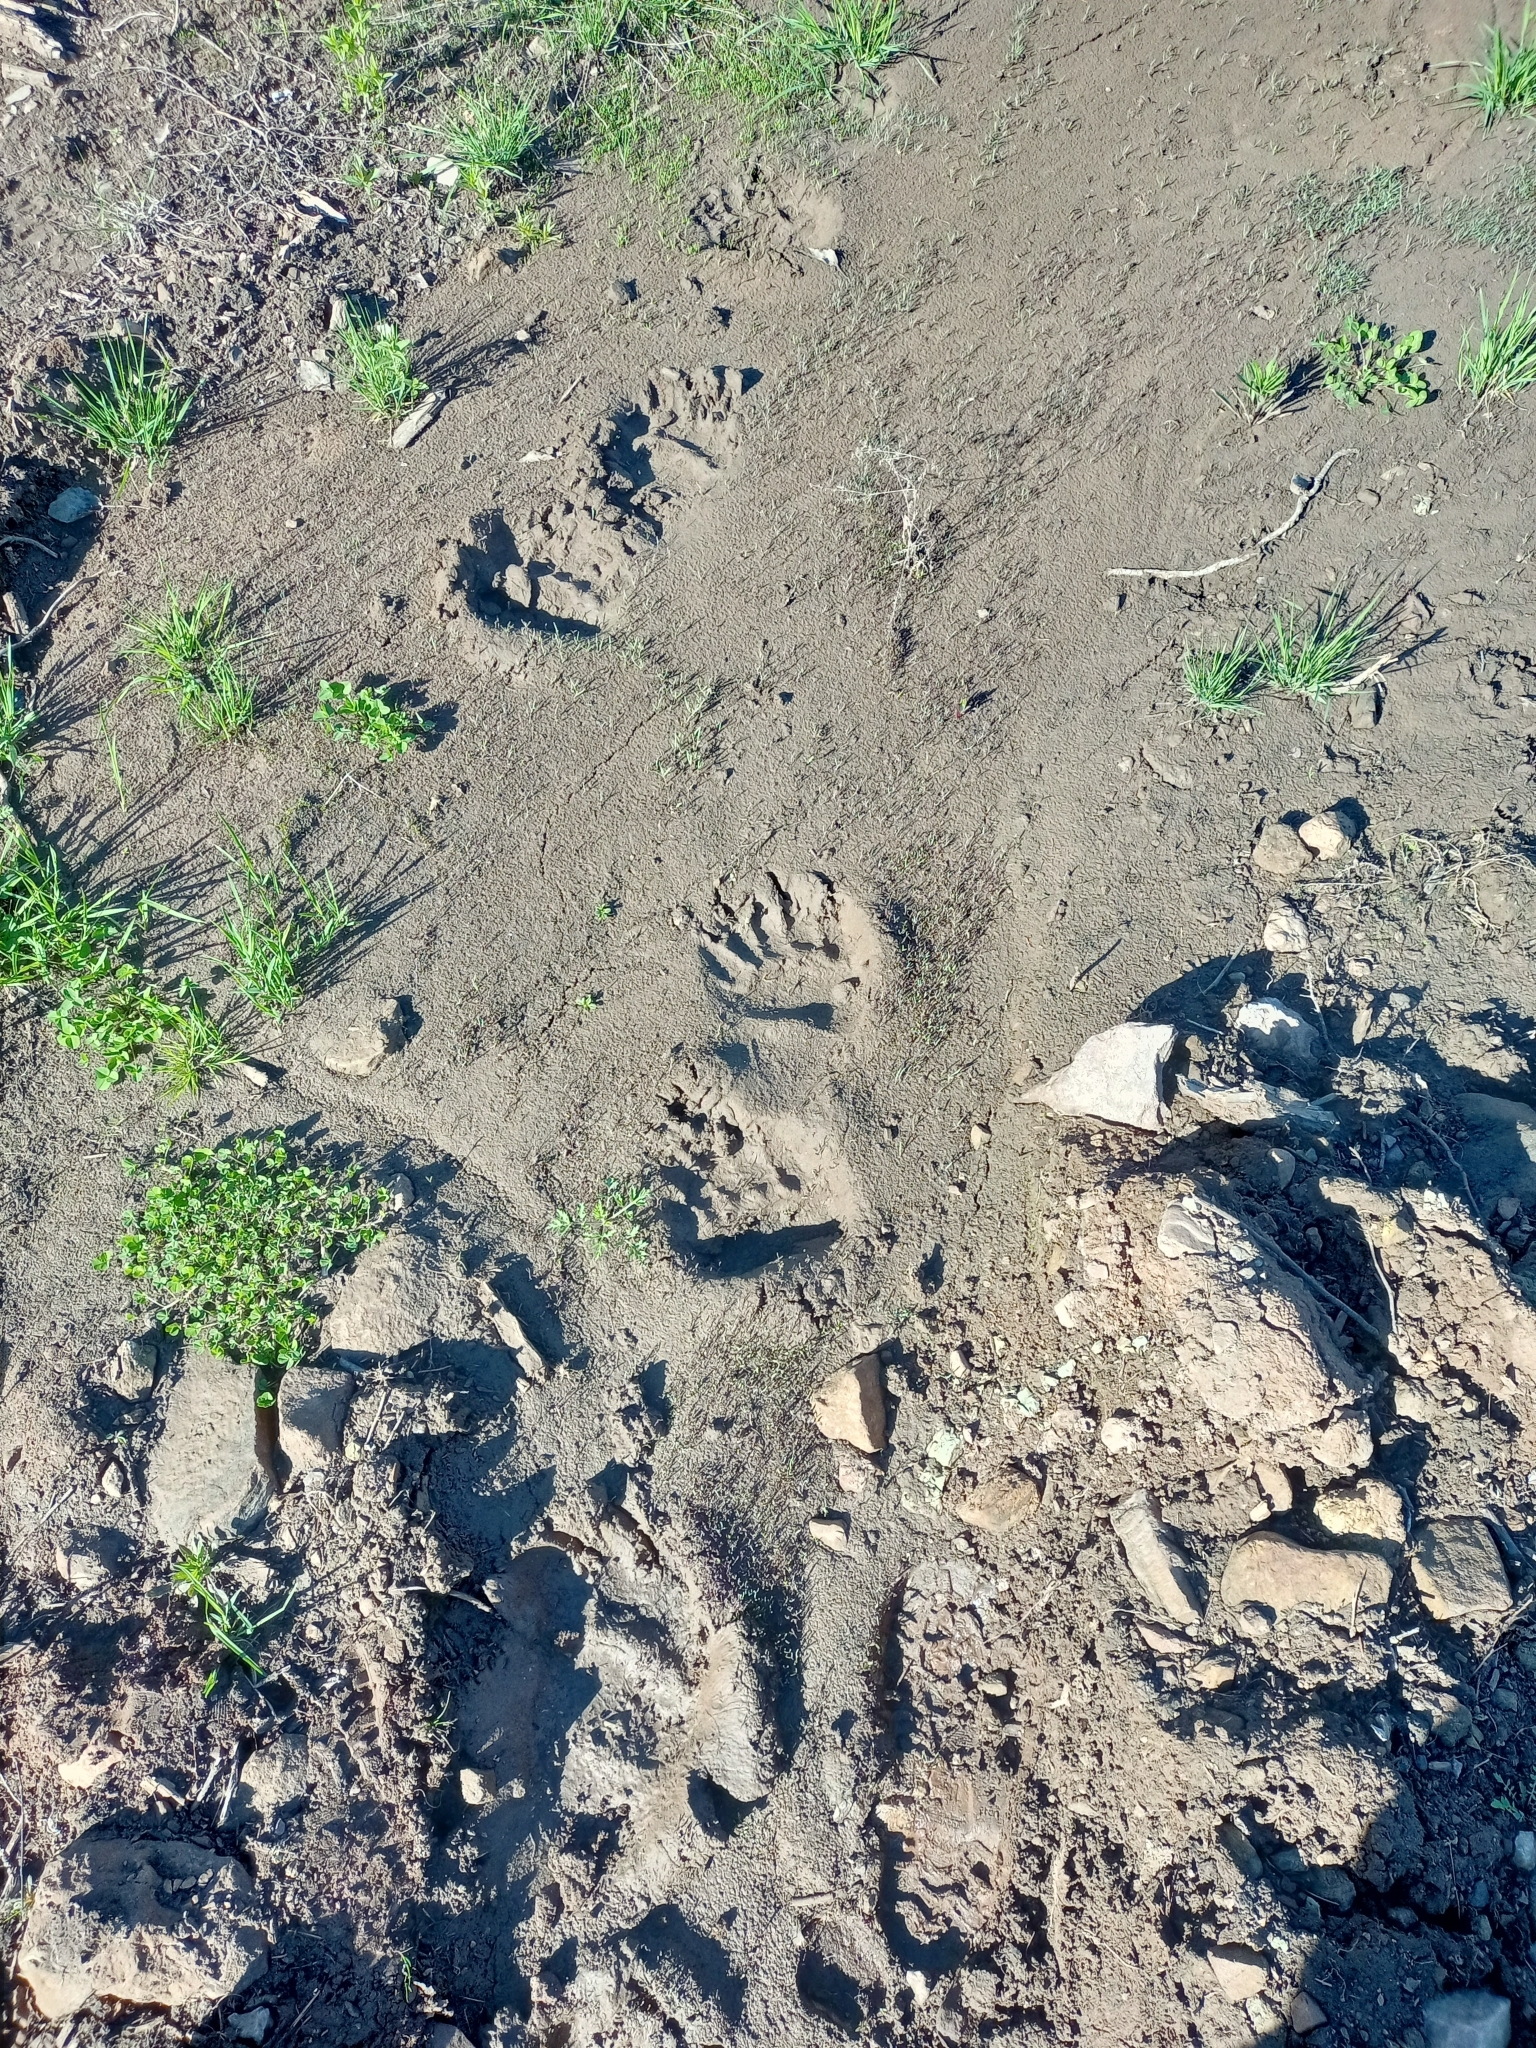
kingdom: Animalia
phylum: Chordata
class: Mammalia
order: Carnivora
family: Ursidae
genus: Ursus
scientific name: Ursus arctos
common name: Brown bear
